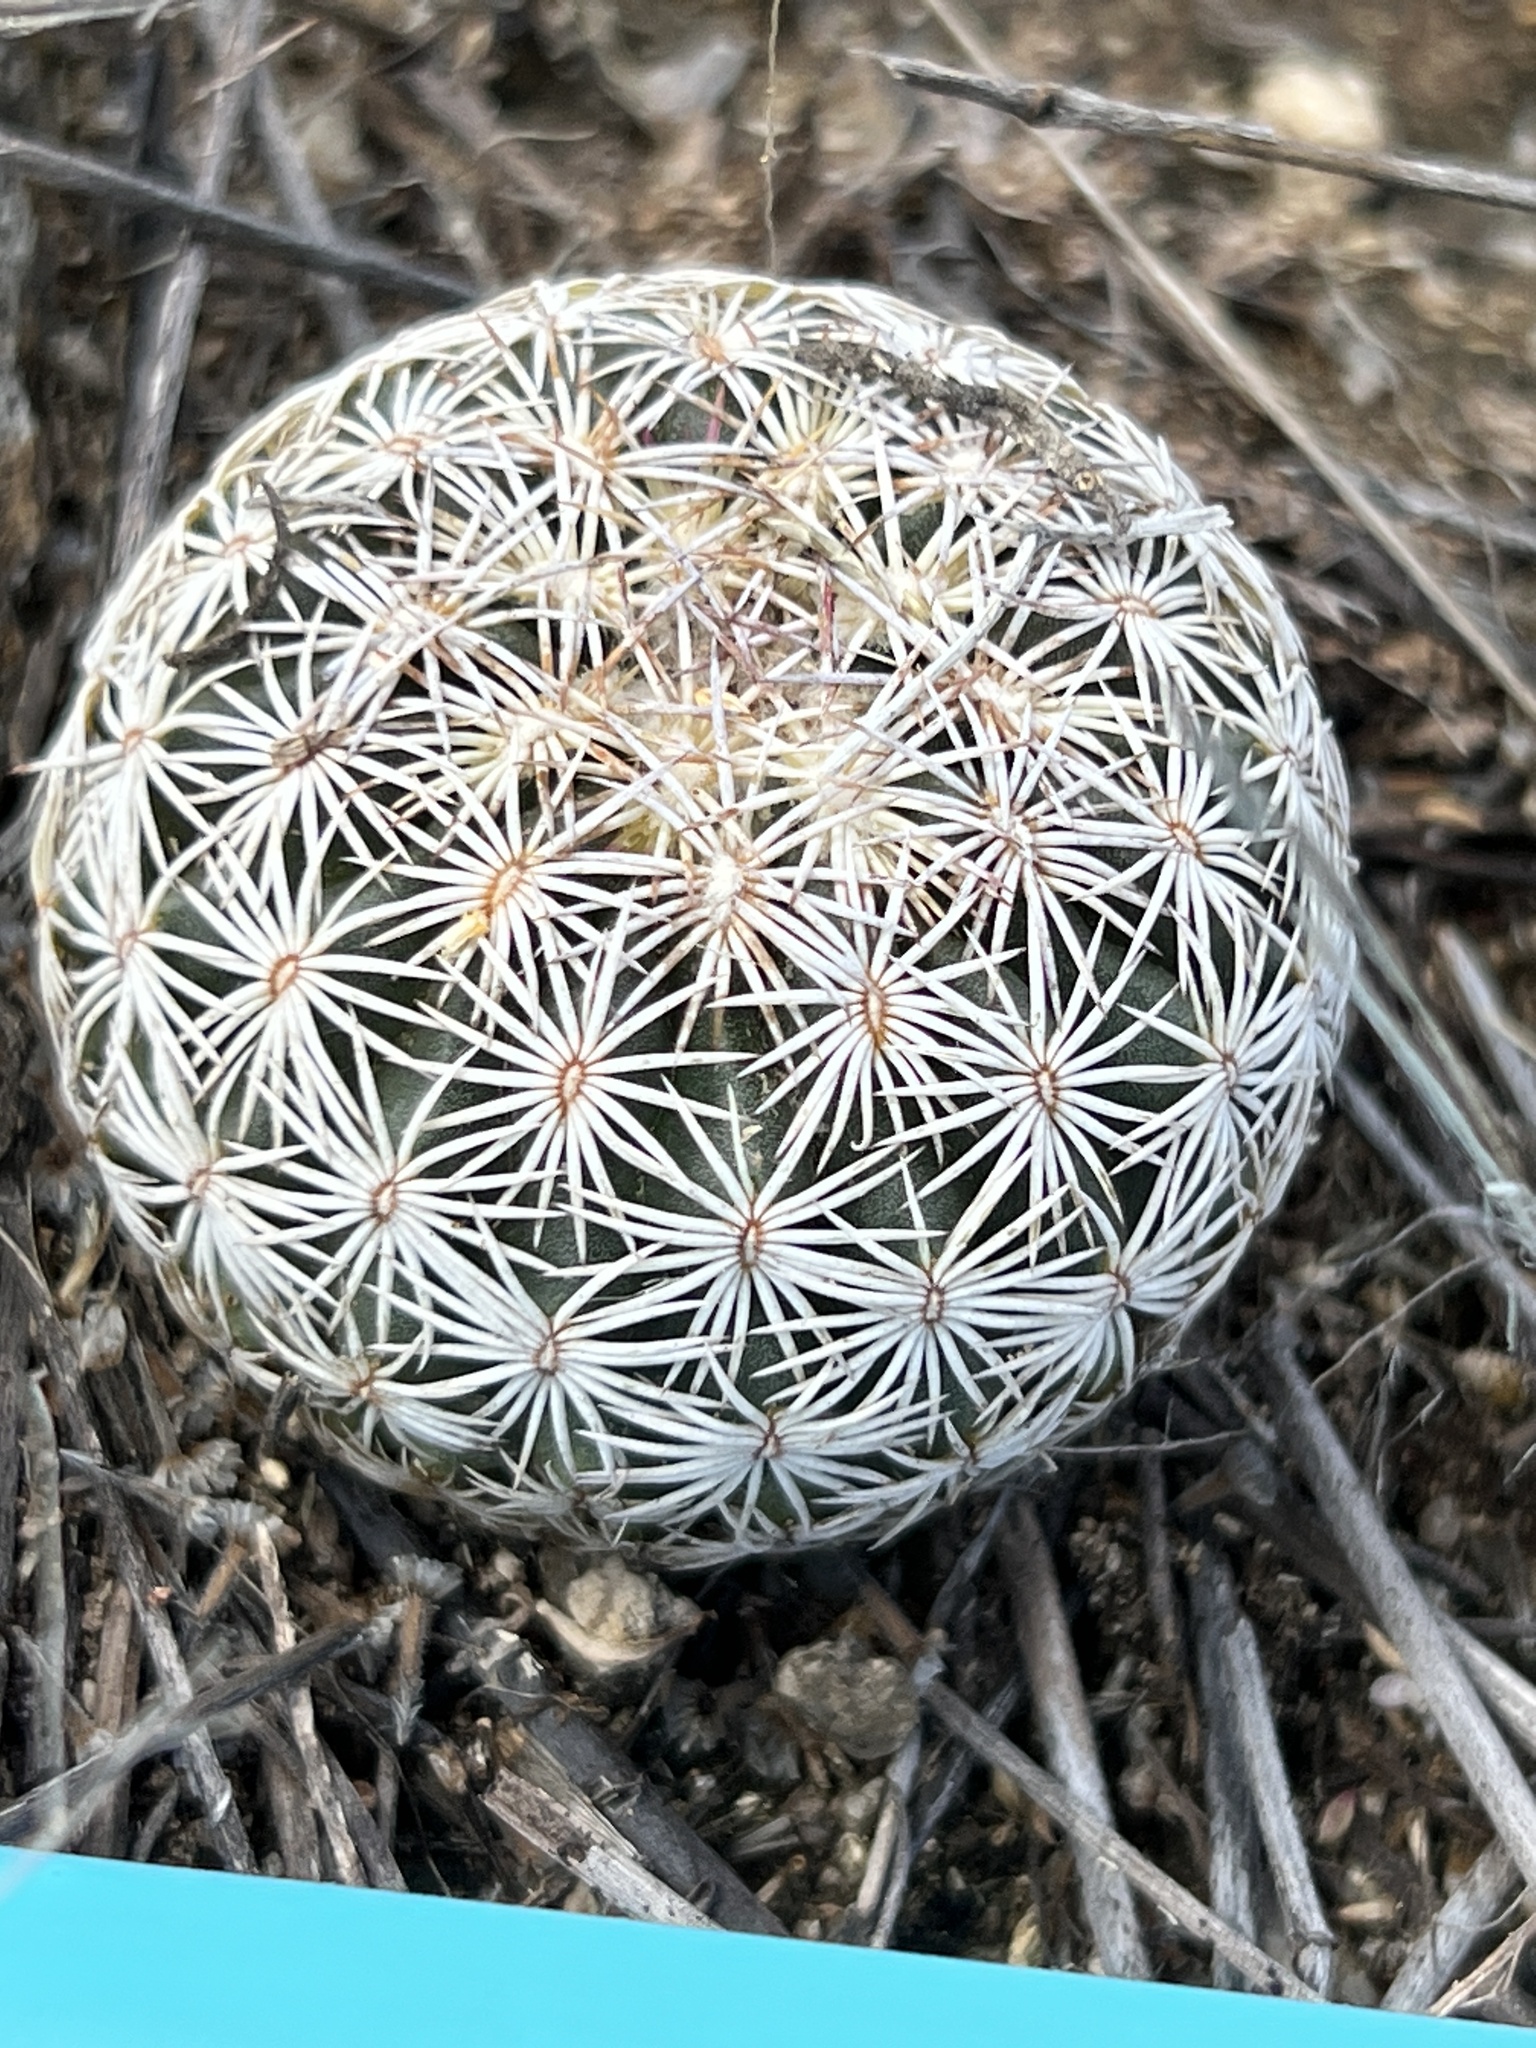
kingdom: Plantae
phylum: Tracheophyta
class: Magnoliopsida
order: Caryophyllales
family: Cactaceae
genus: Sclerocactus
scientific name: Sclerocactus johnsonii
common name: Eight-spine fishhook cactus
